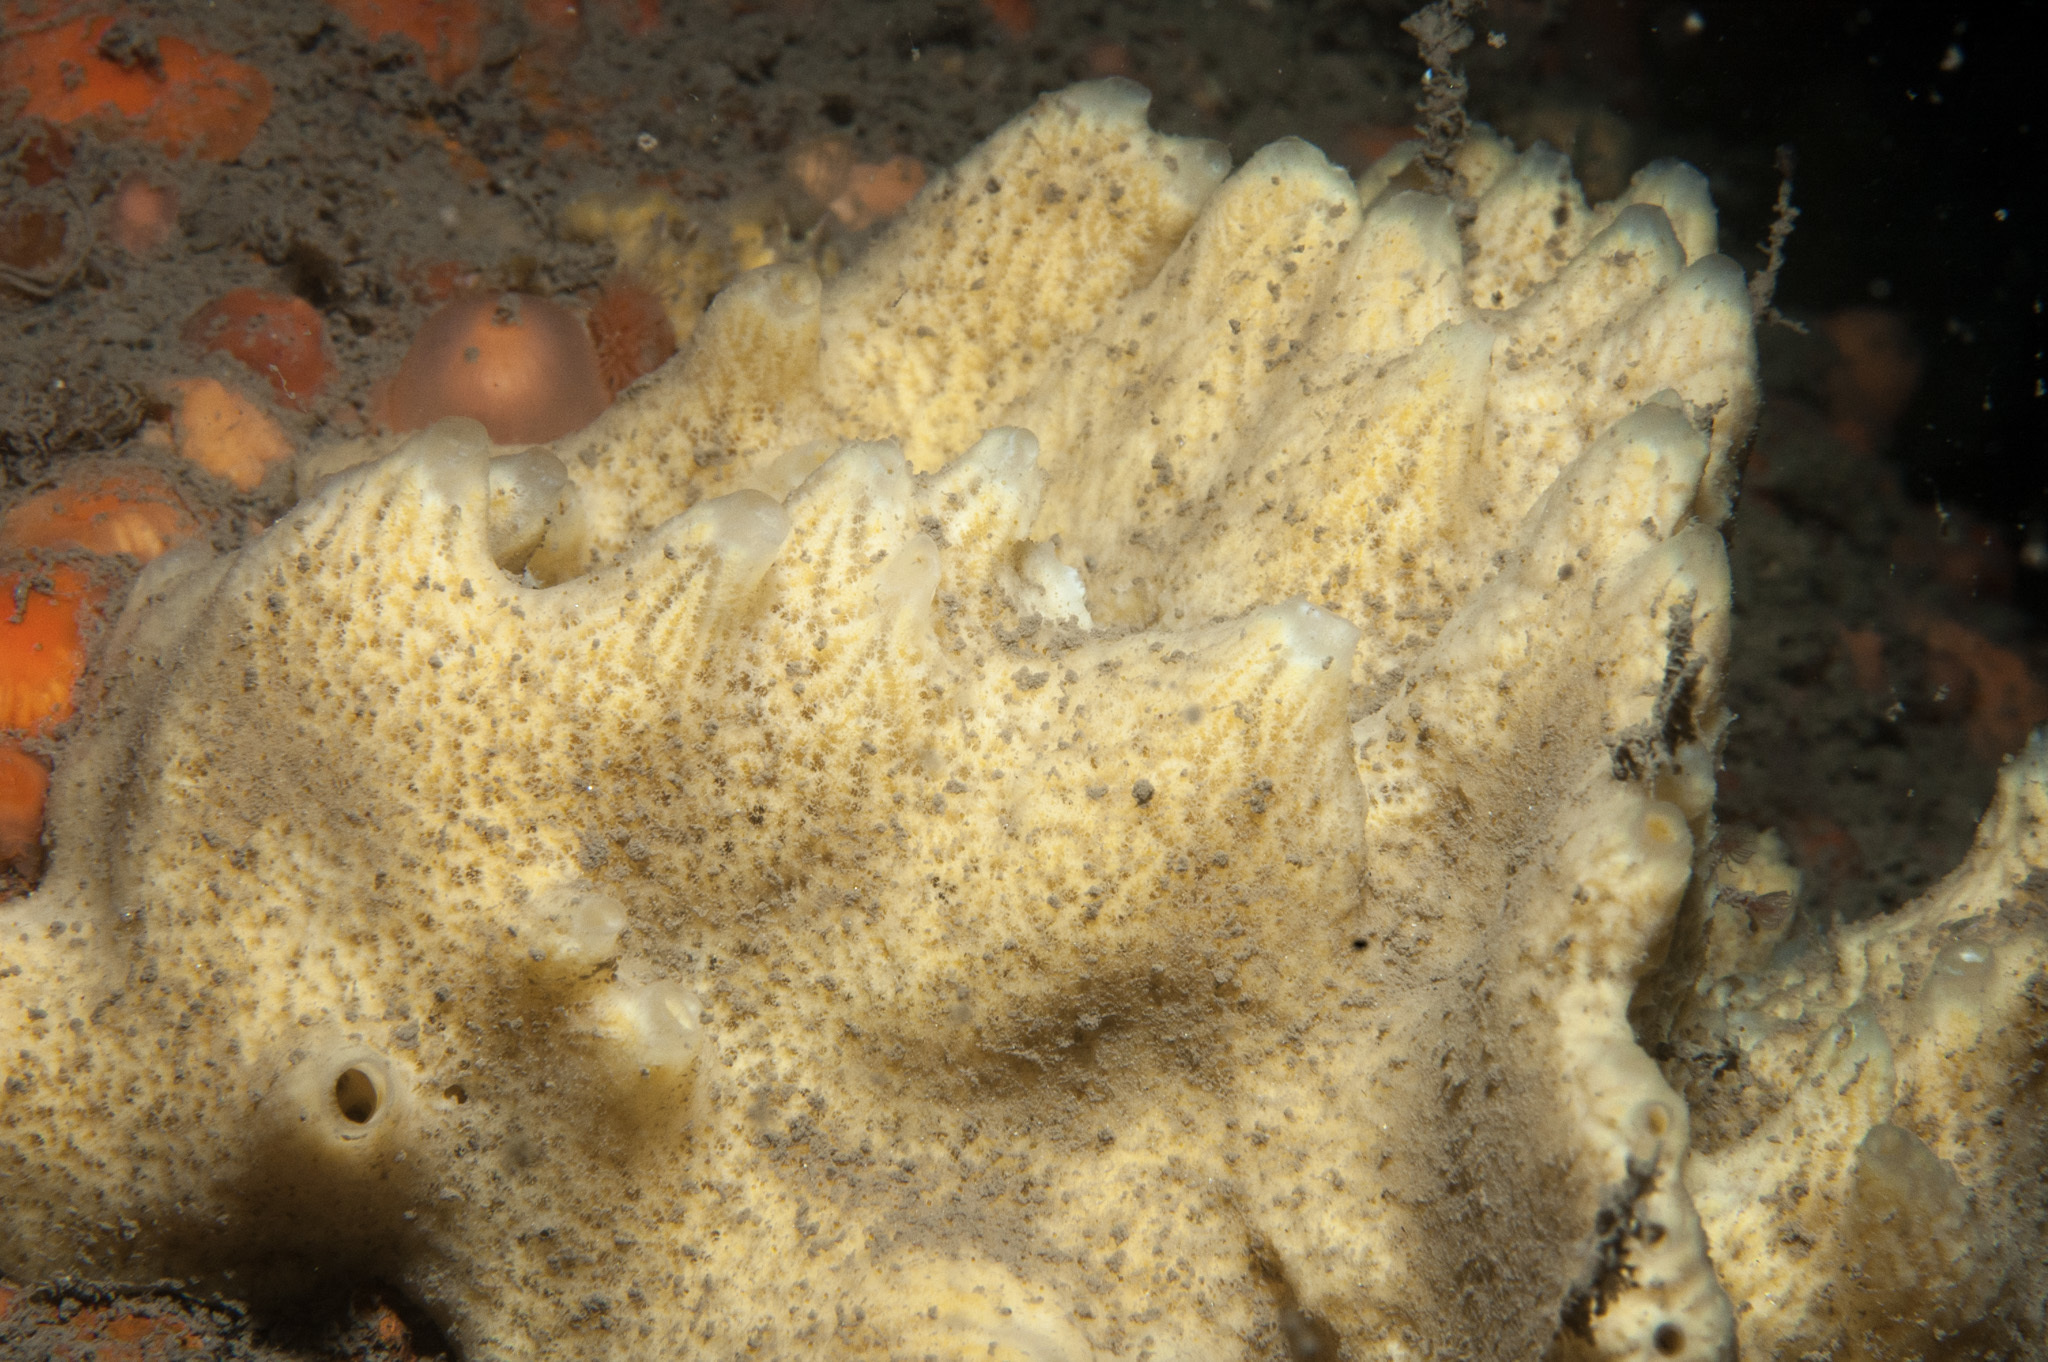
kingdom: Animalia
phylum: Porifera
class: Demospongiae
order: Poecilosclerida
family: Myxillidae
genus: Myxilla
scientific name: Myxilla incrustans
